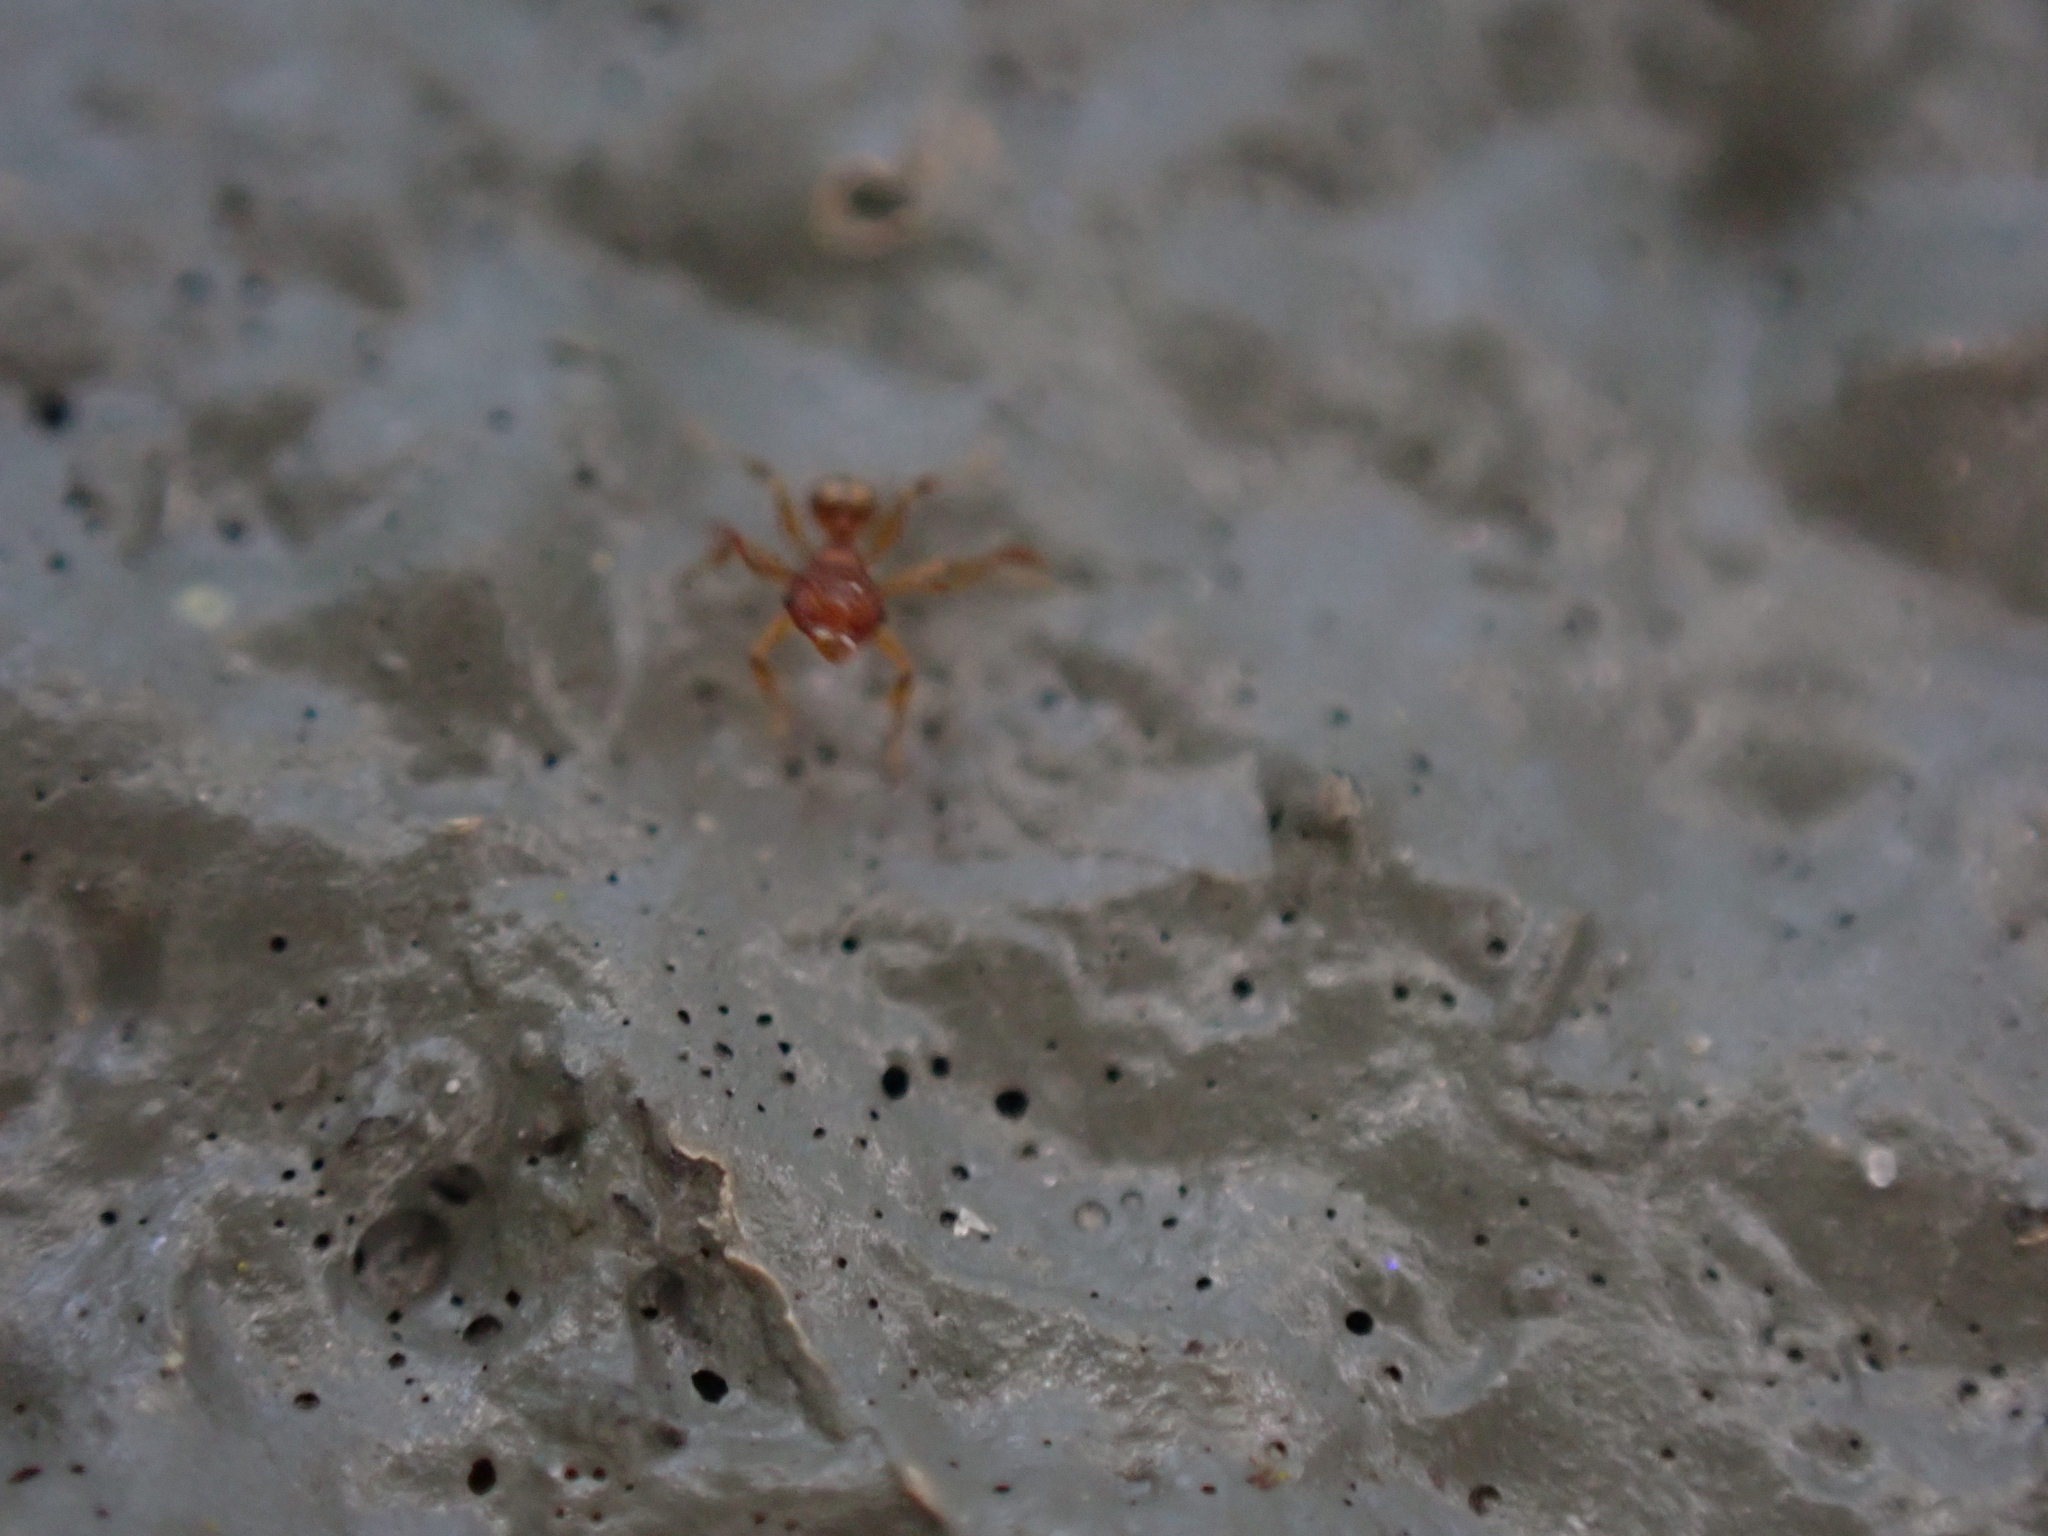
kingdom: Animalia
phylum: Arthropoda
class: Insecta
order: Hymenoptera
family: Formicidae
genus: Pheidole
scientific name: Pheidole navigans
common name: Navigating big-headed ant
